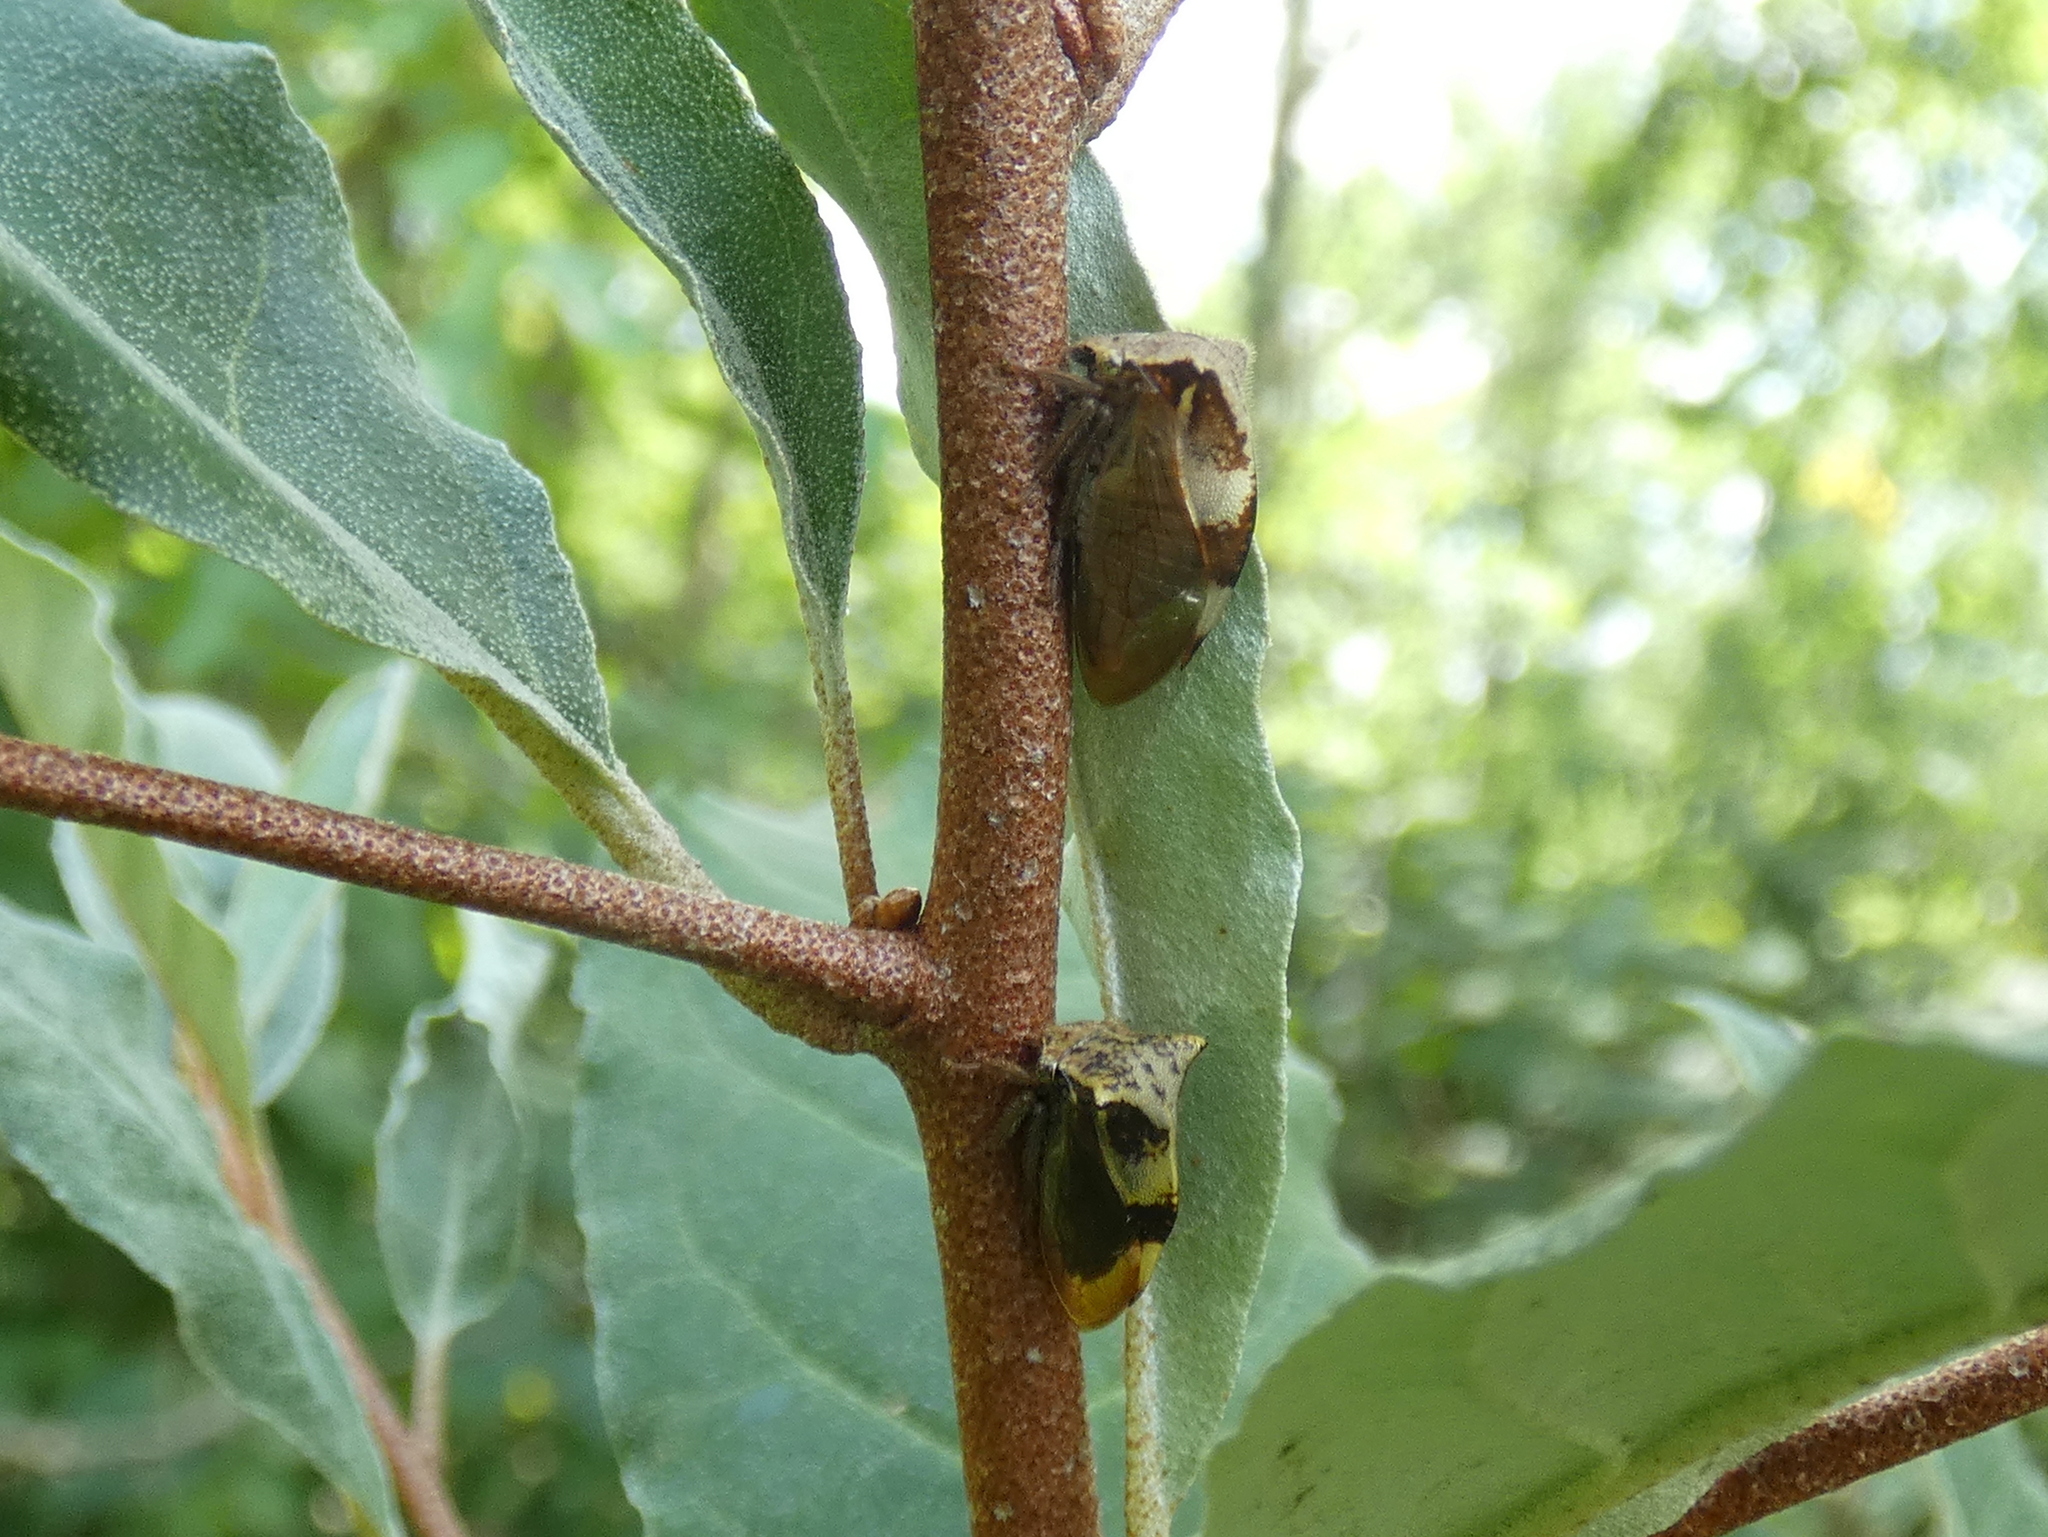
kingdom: Animalia
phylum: Arthropoda
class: Insecta
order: Hemiptera
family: Membracidae
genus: Stictocephala
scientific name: Stictocephala diceros
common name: Two-horned treehopper
